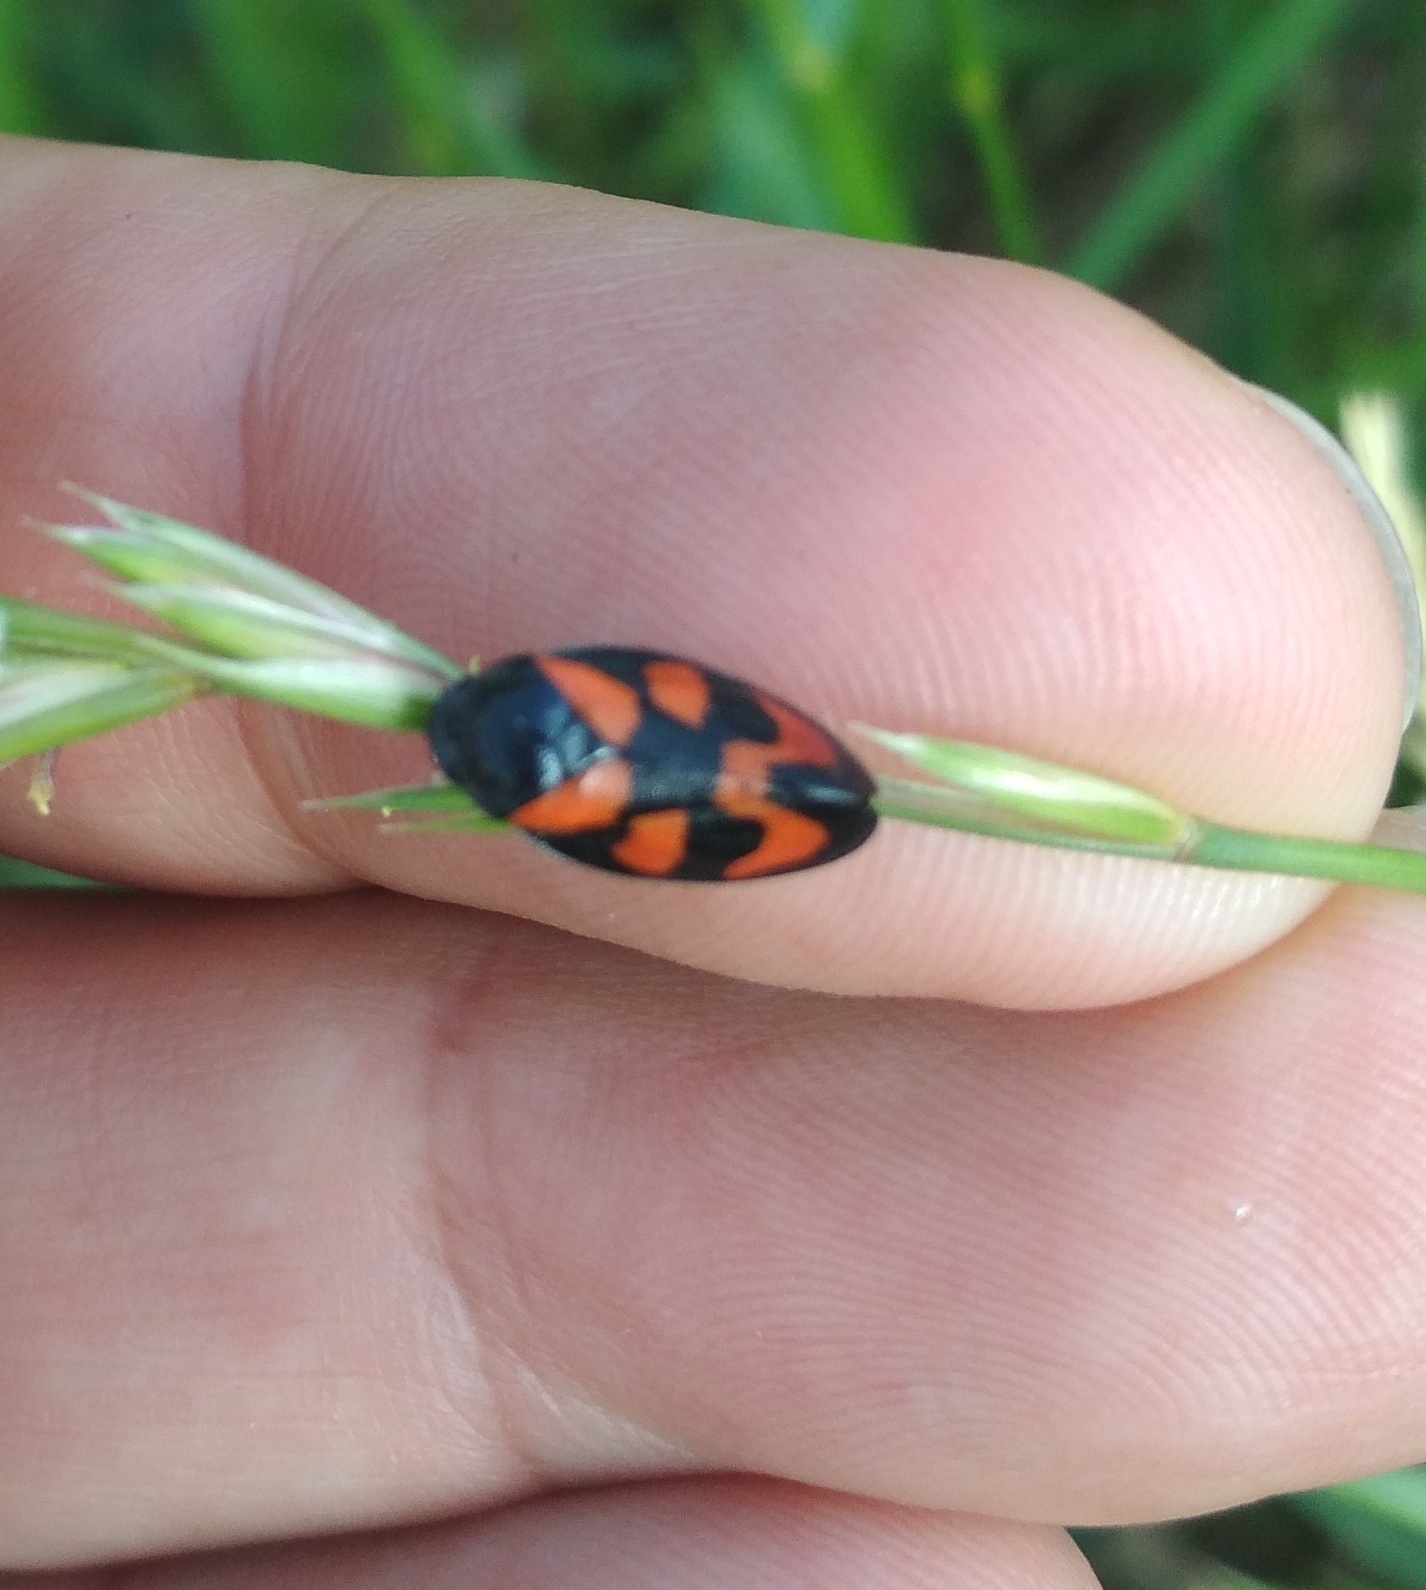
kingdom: Animalia
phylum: Arthropoda
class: Insecta
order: Hemiptera
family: Cercopidae
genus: Cercopis
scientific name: Cercopis vulnerata
